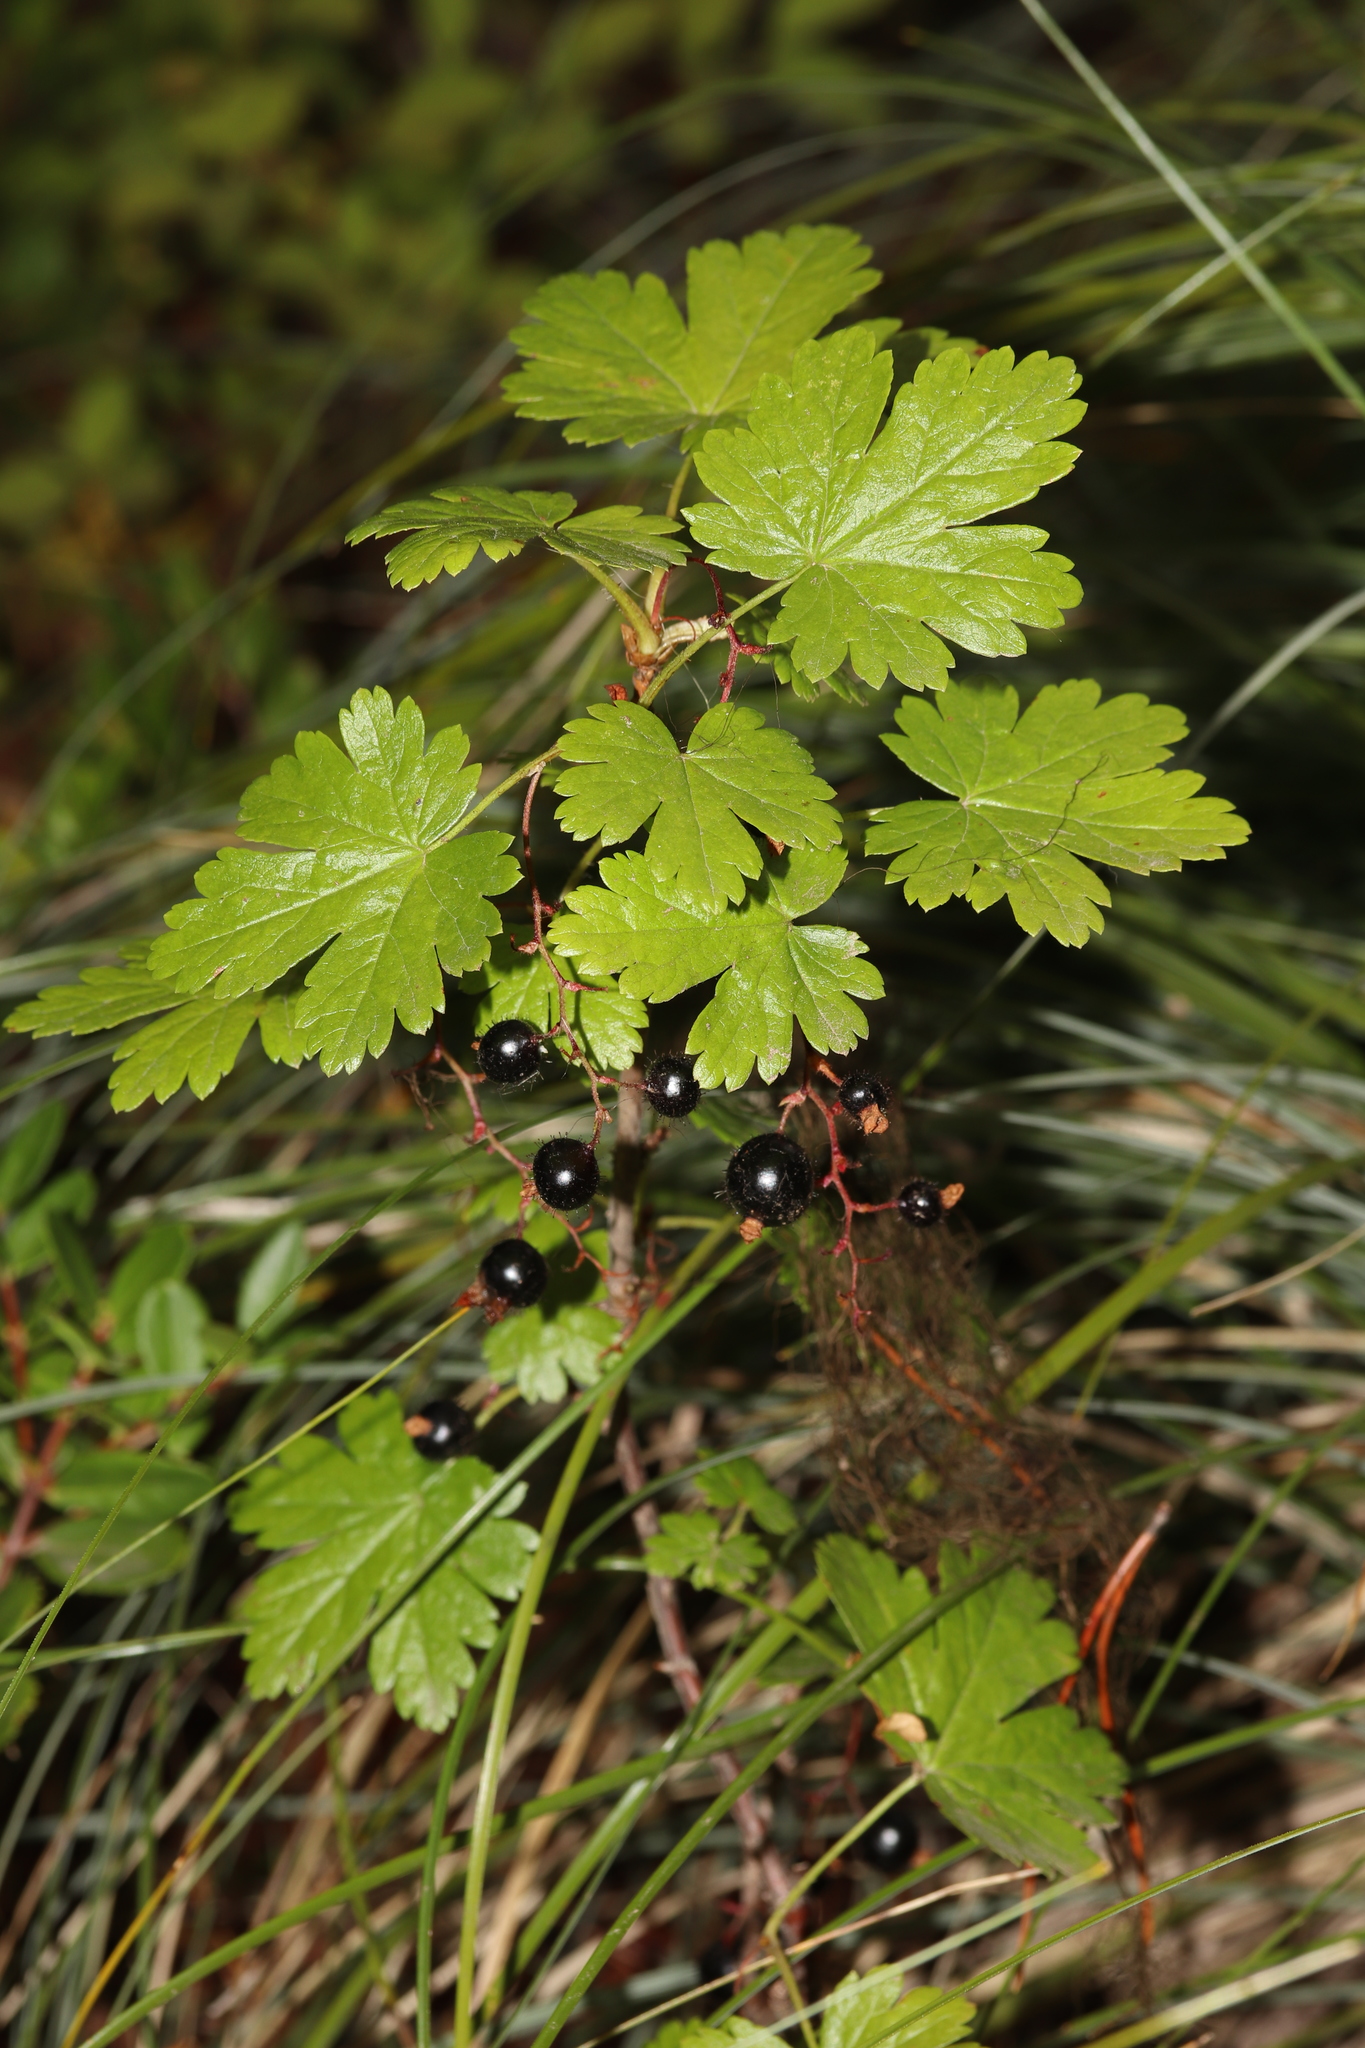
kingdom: Plantae
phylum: Tracheophyta
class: Magnoliopsida
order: Saxifragales
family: Grossulariaceae
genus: Ribes
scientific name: Ribes lacustre
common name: Black gooseberry
